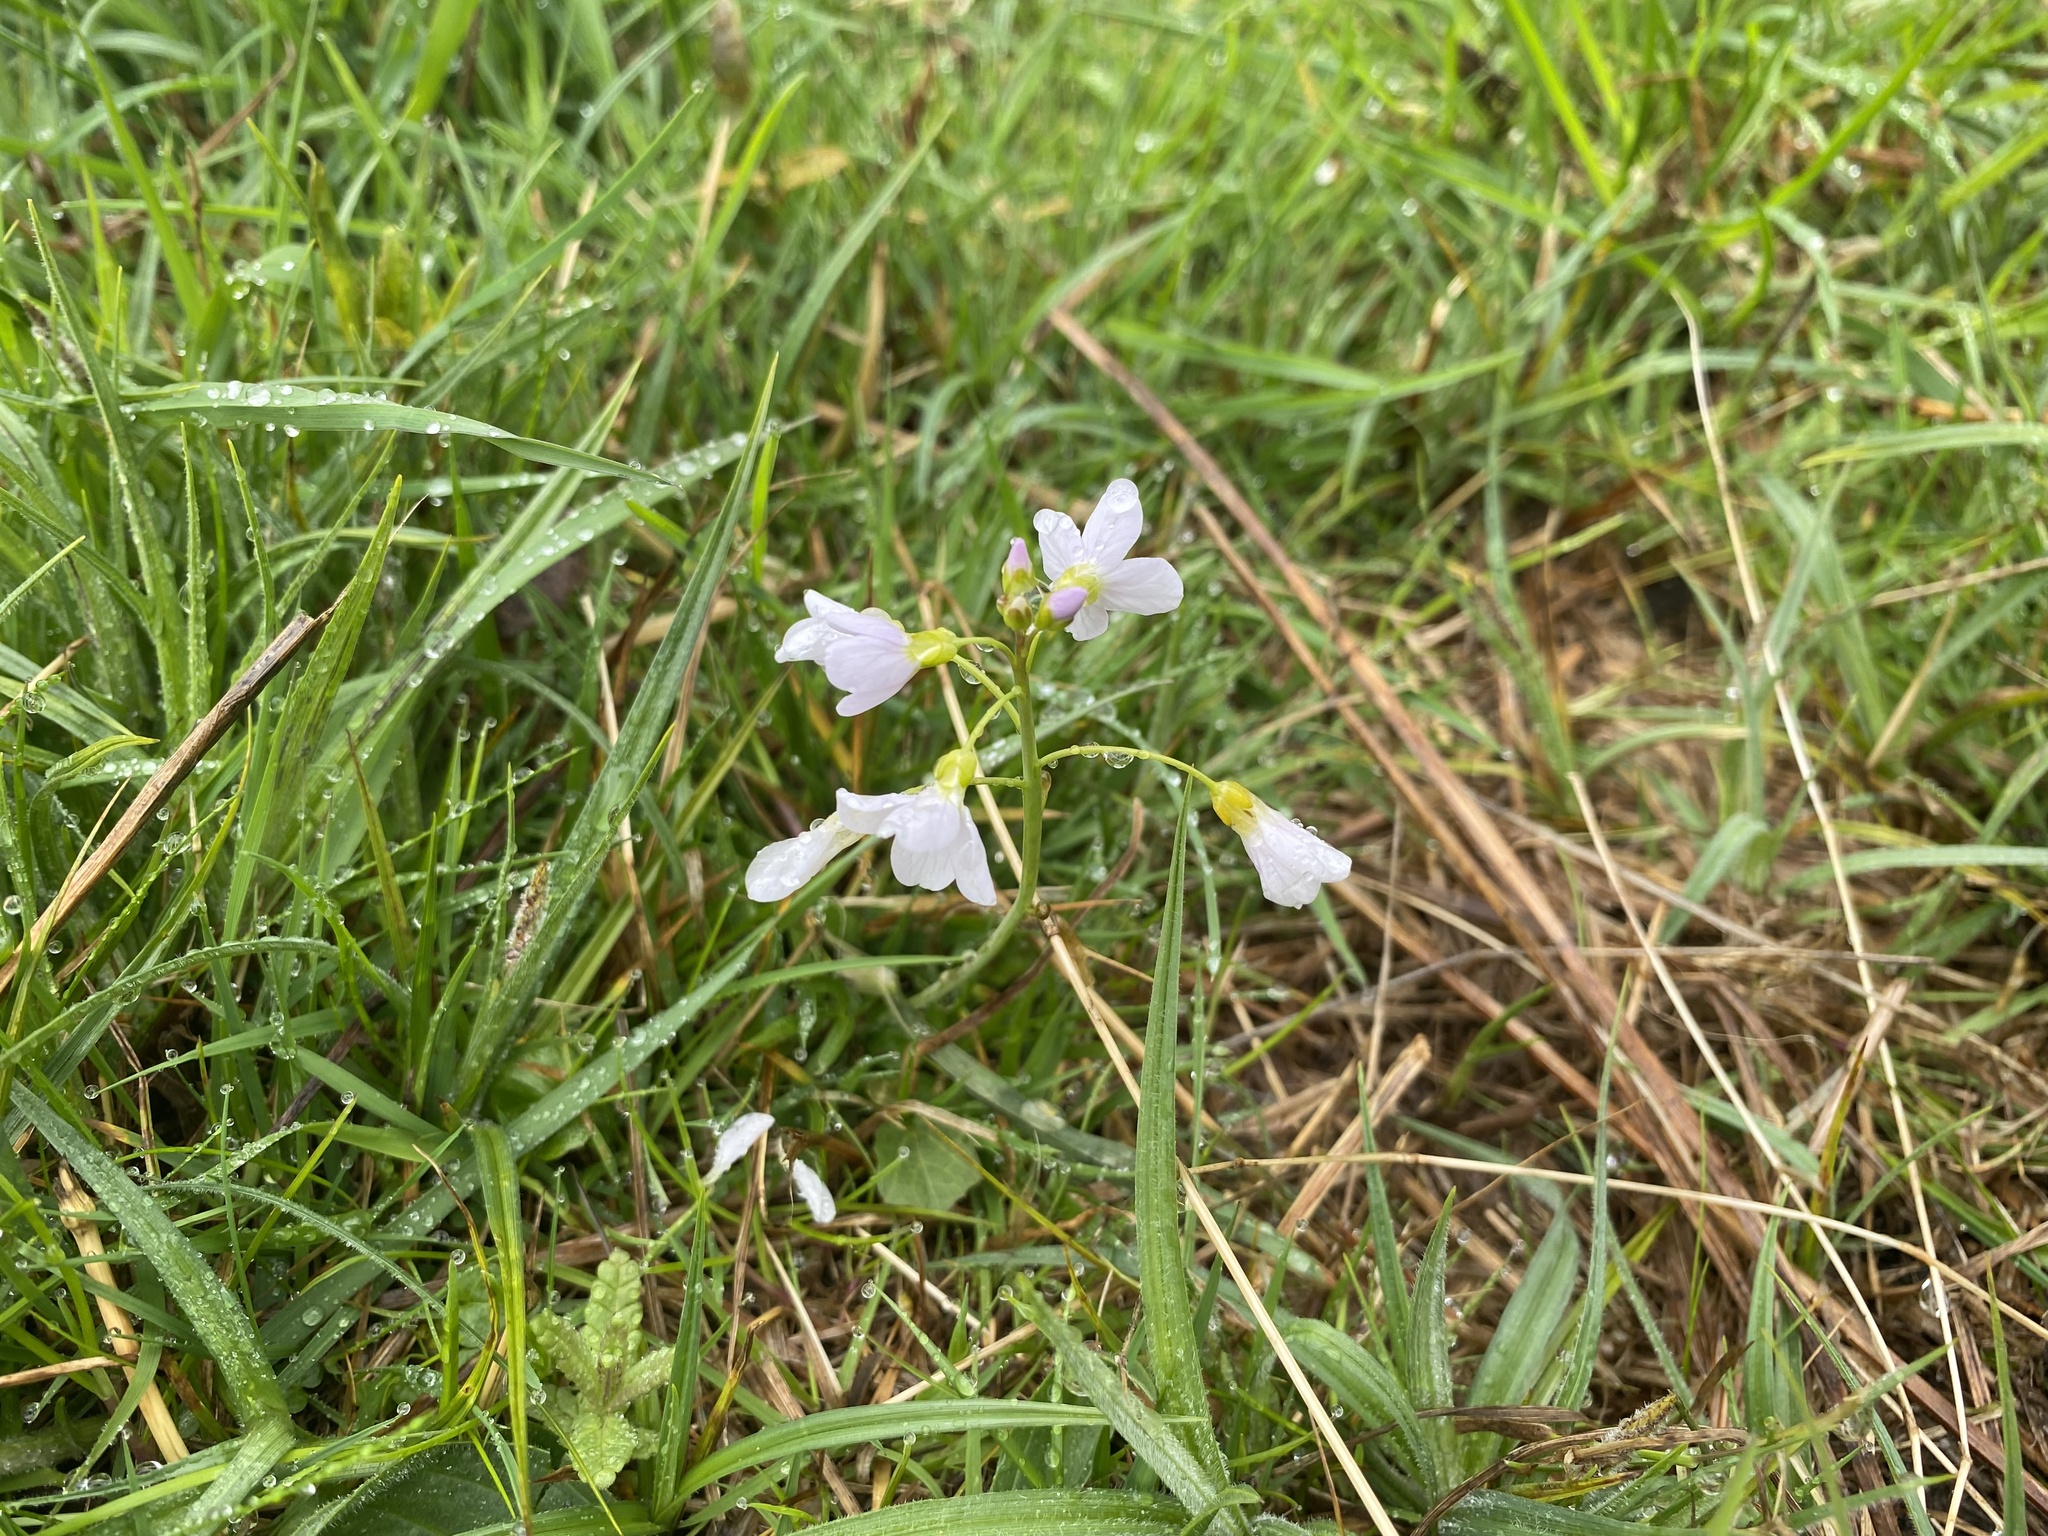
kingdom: Plantae
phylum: Tracheophyta
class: Magnoliopsida
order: Brassicales
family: Brassicaceae
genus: Cardamine
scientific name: Cardamine pratensis
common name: Cuckoo flower
